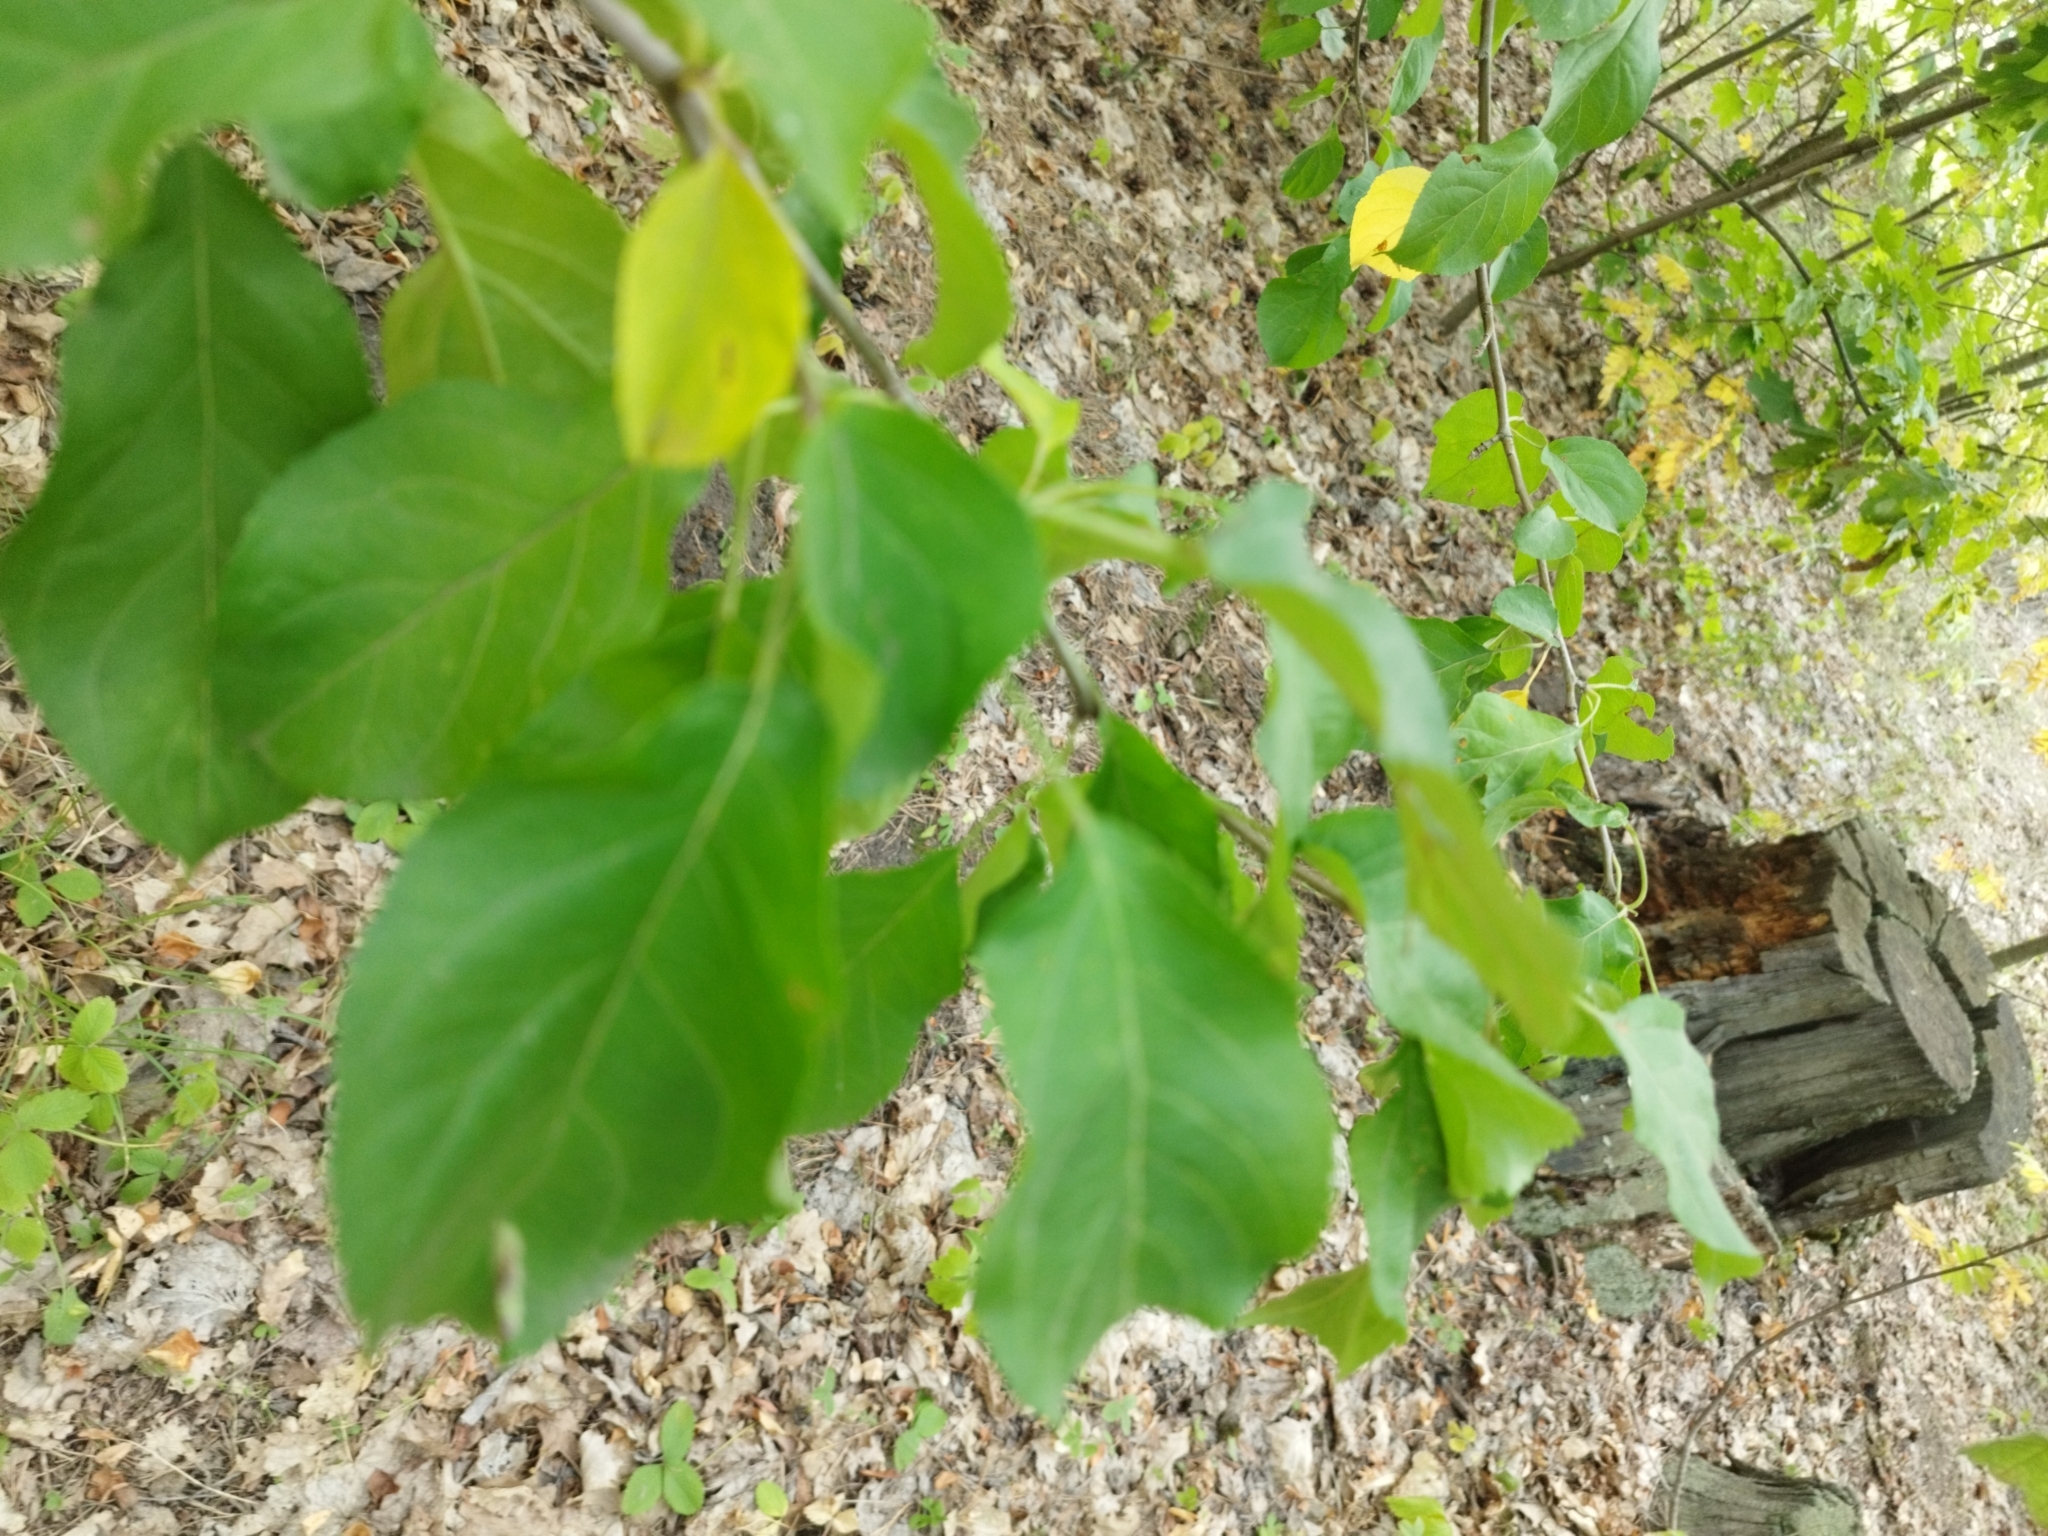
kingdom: Plantae
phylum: Tracheophyta
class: Magnoliopsida
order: Rosales
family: Rhamnaceae
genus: Rhamnus
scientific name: Rhamnus cathartica
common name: Common buckthorn
